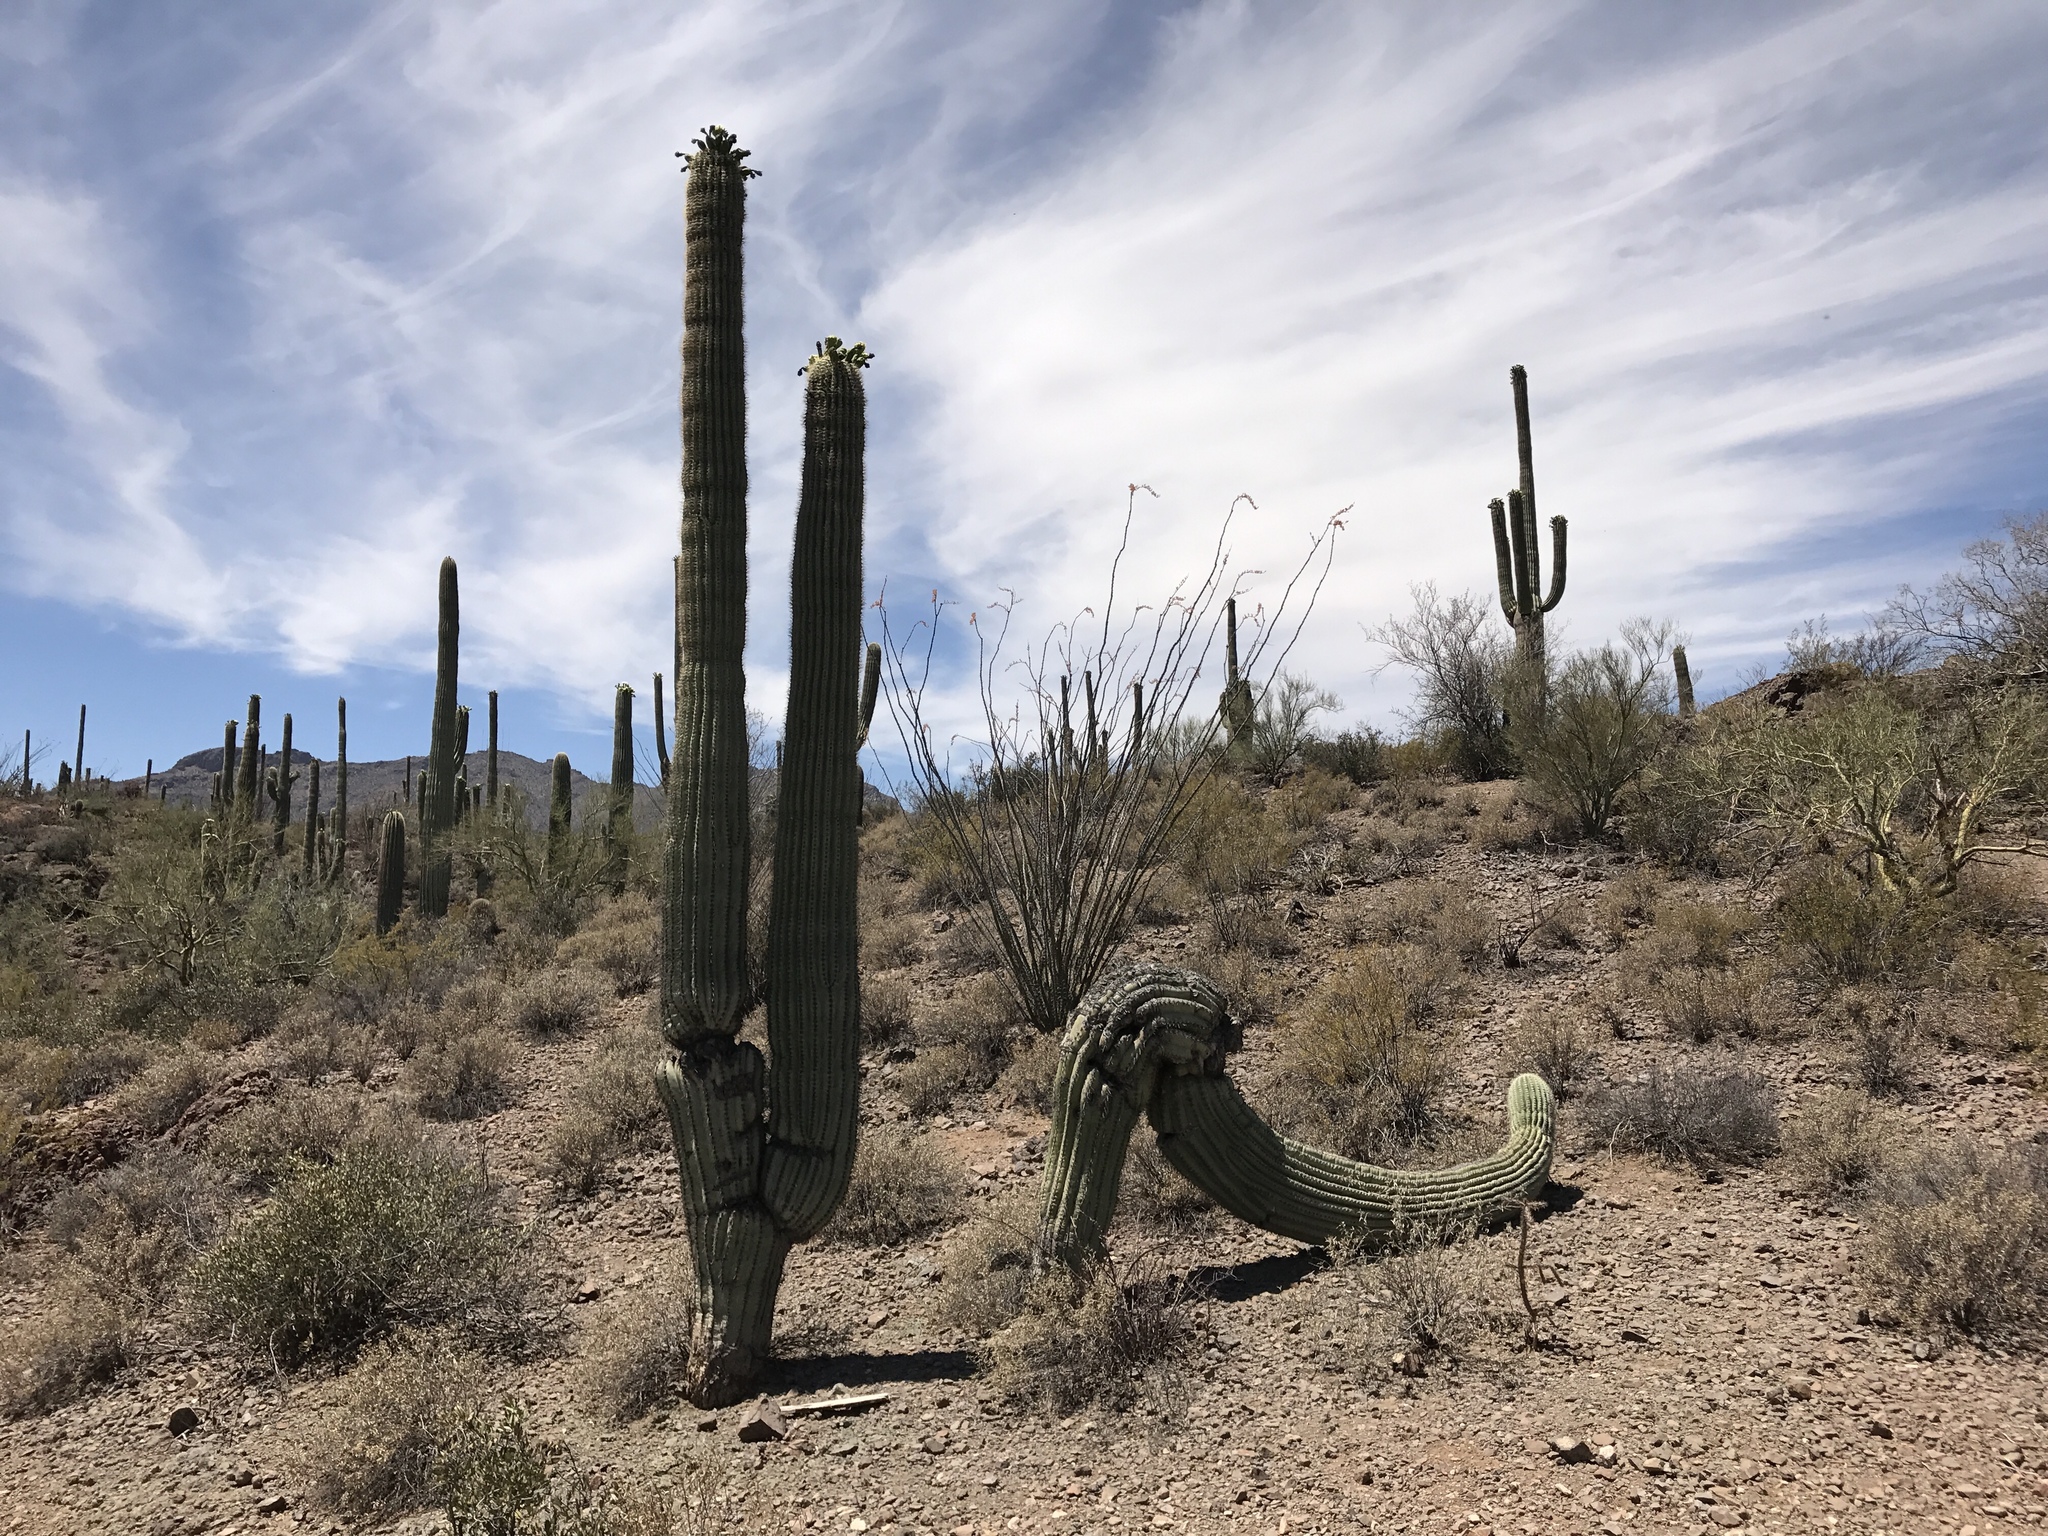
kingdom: Plantae
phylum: Tracheophyta
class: Magnoliopsida
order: Caryophyllales
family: Cactaceae
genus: Carnegiea
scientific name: Carnegiea gigantea
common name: Saguaro
